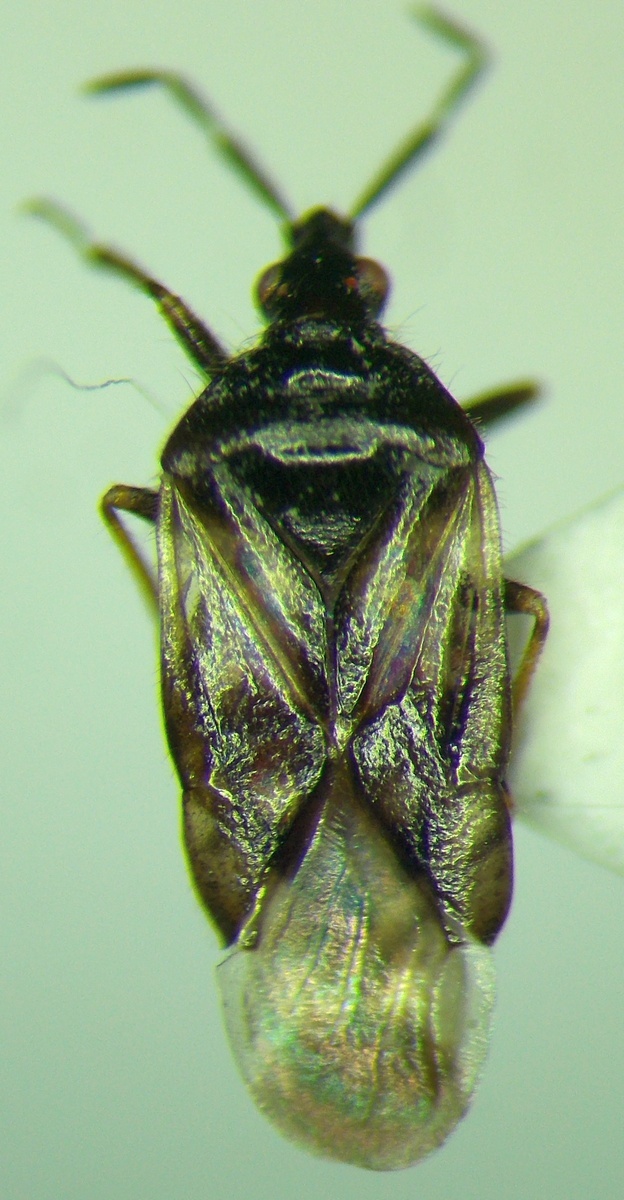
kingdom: Animalia
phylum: Arthropoda
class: Insecta
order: Hemiptera
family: Anthocoridae
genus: Anthocoris
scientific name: Anthocoris pilosus
